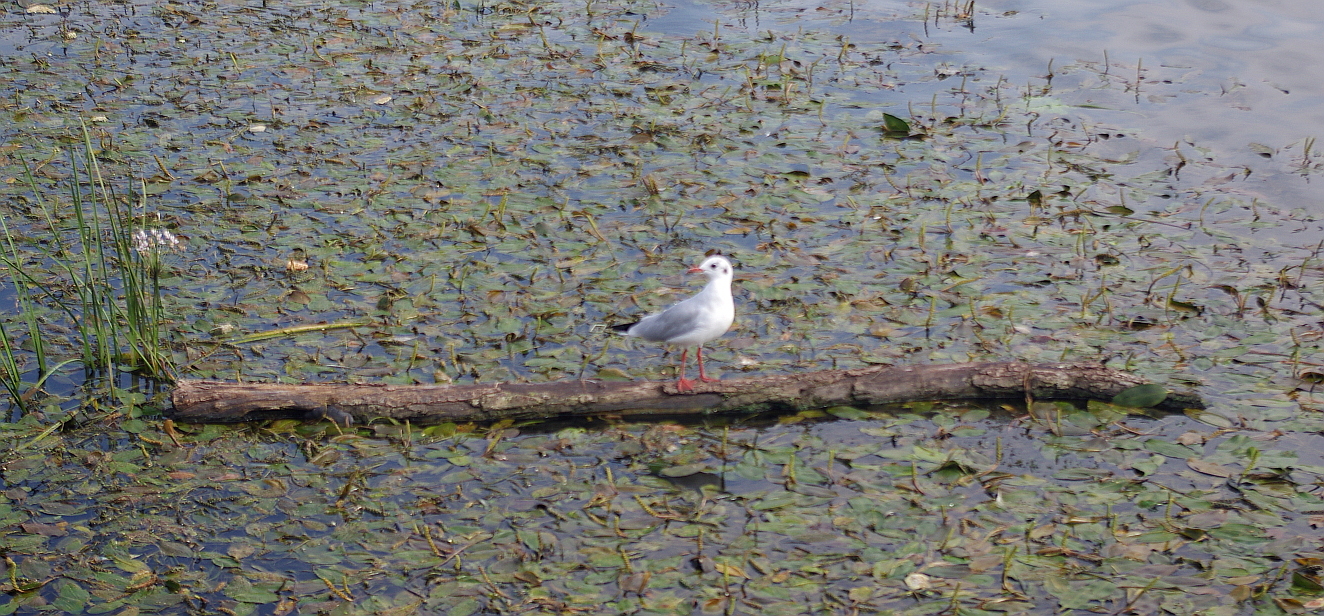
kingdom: Animalia
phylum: Chordata
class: Aves
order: Charadriiformes
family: Laridae
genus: Chroicocephalus
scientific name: Chroicocephalus ridibundus
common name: Black-headed gull
